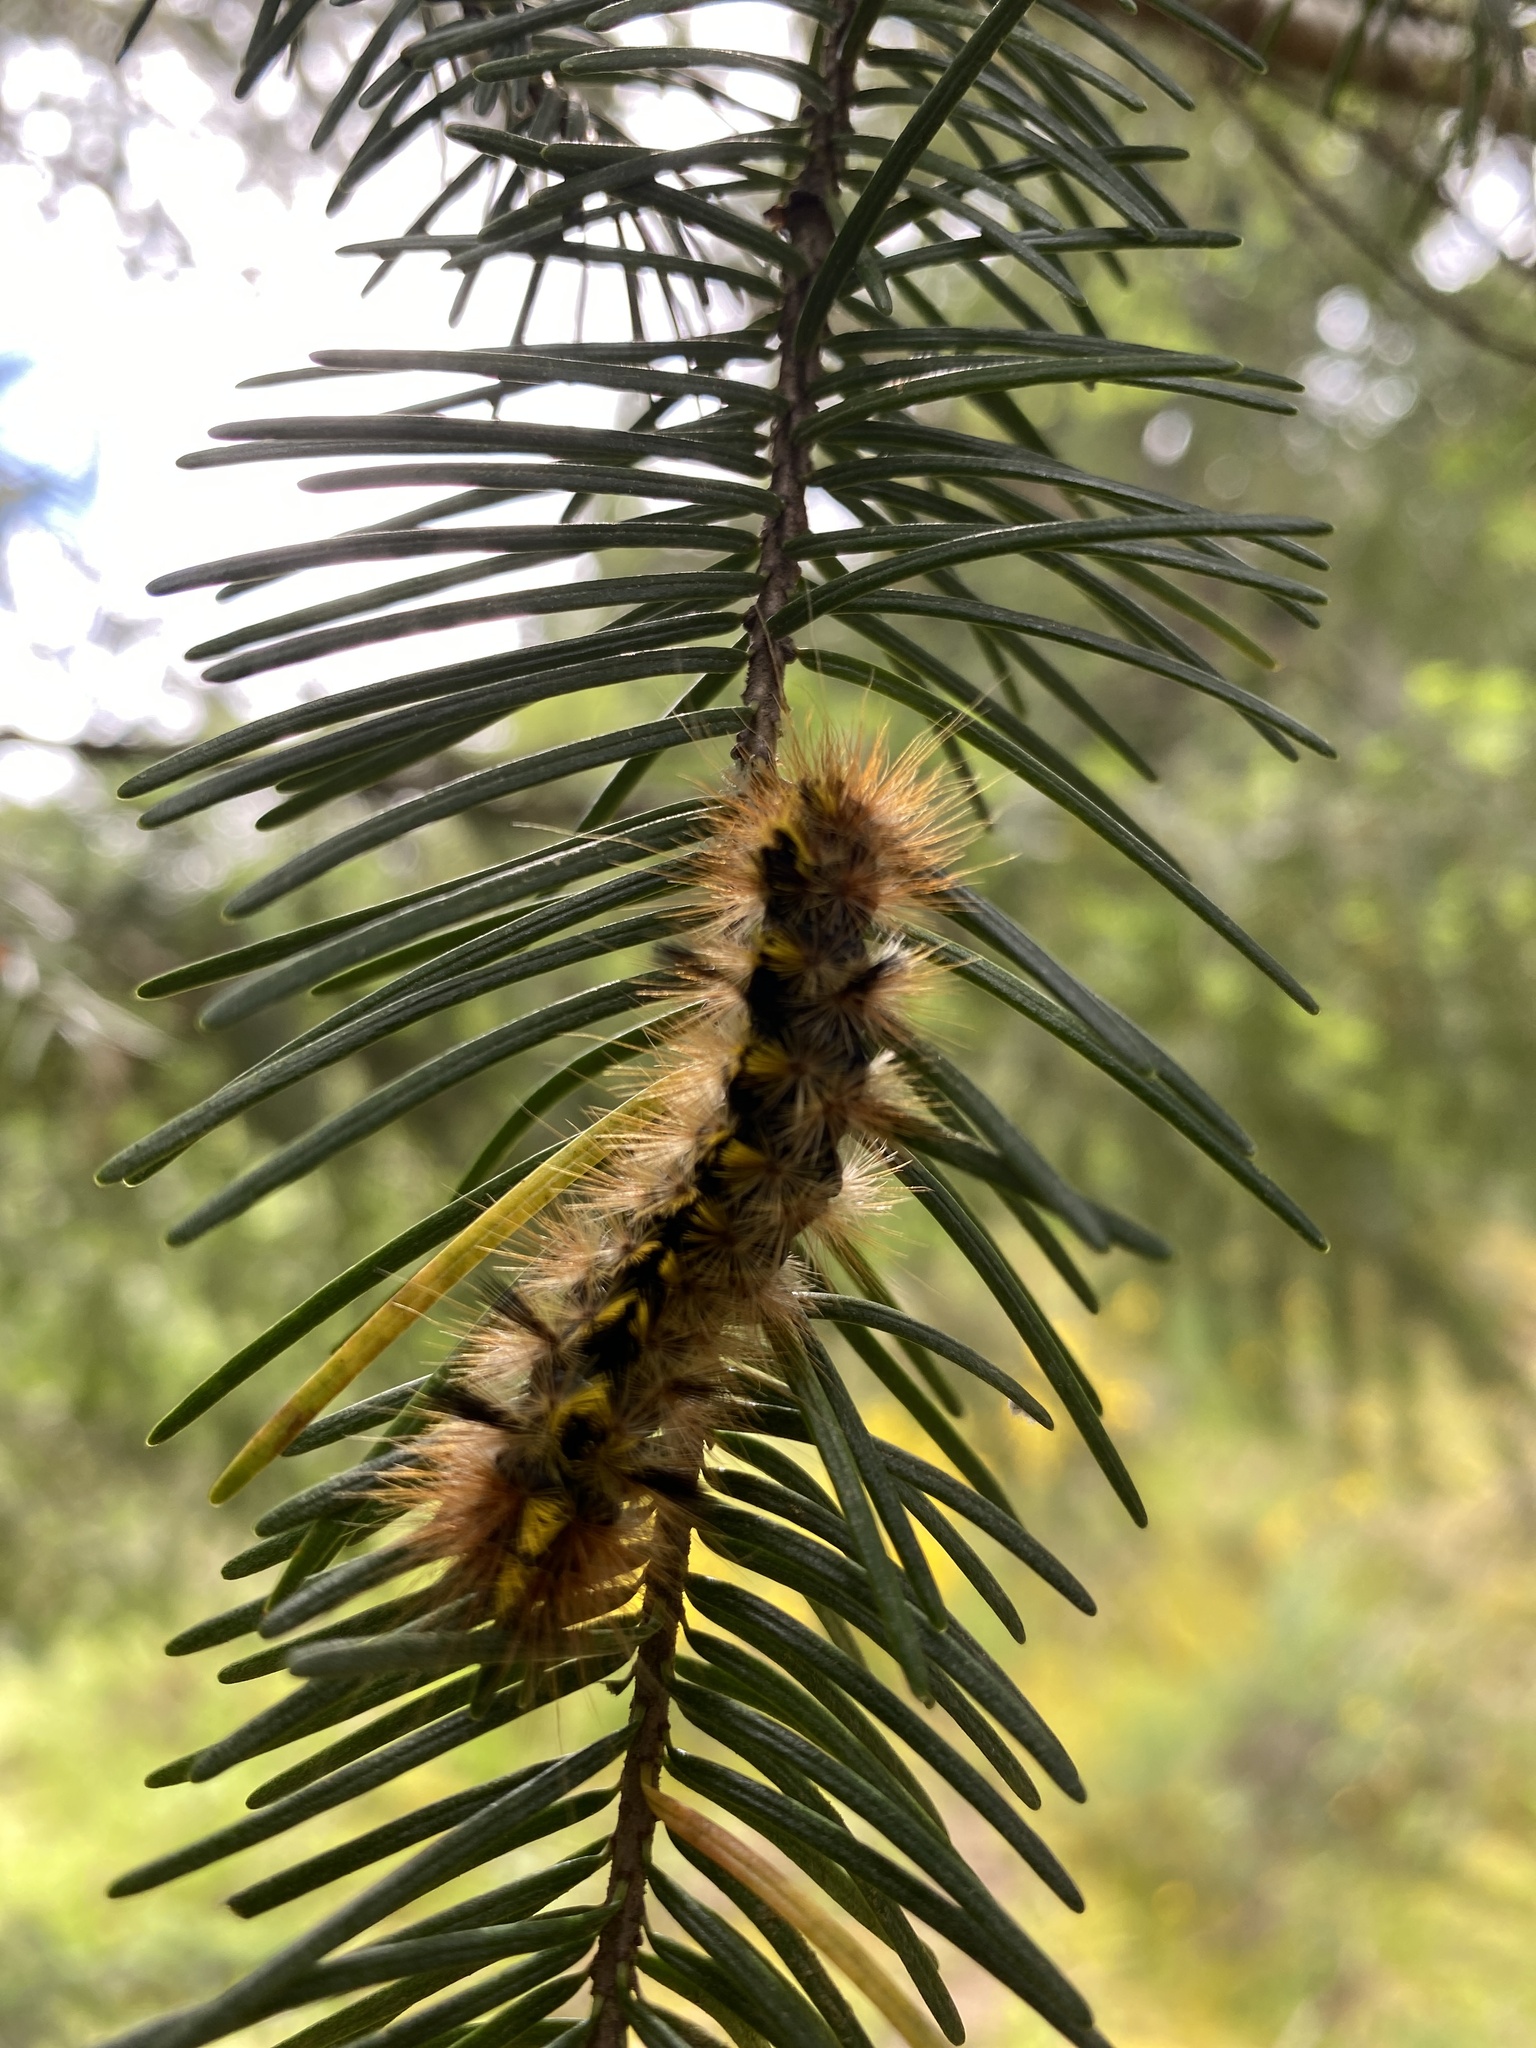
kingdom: Animalia
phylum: Arthropoda
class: Insecta
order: Lepidoptera
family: Erebidae
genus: Lophocampa
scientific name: Lophocampa argentata
